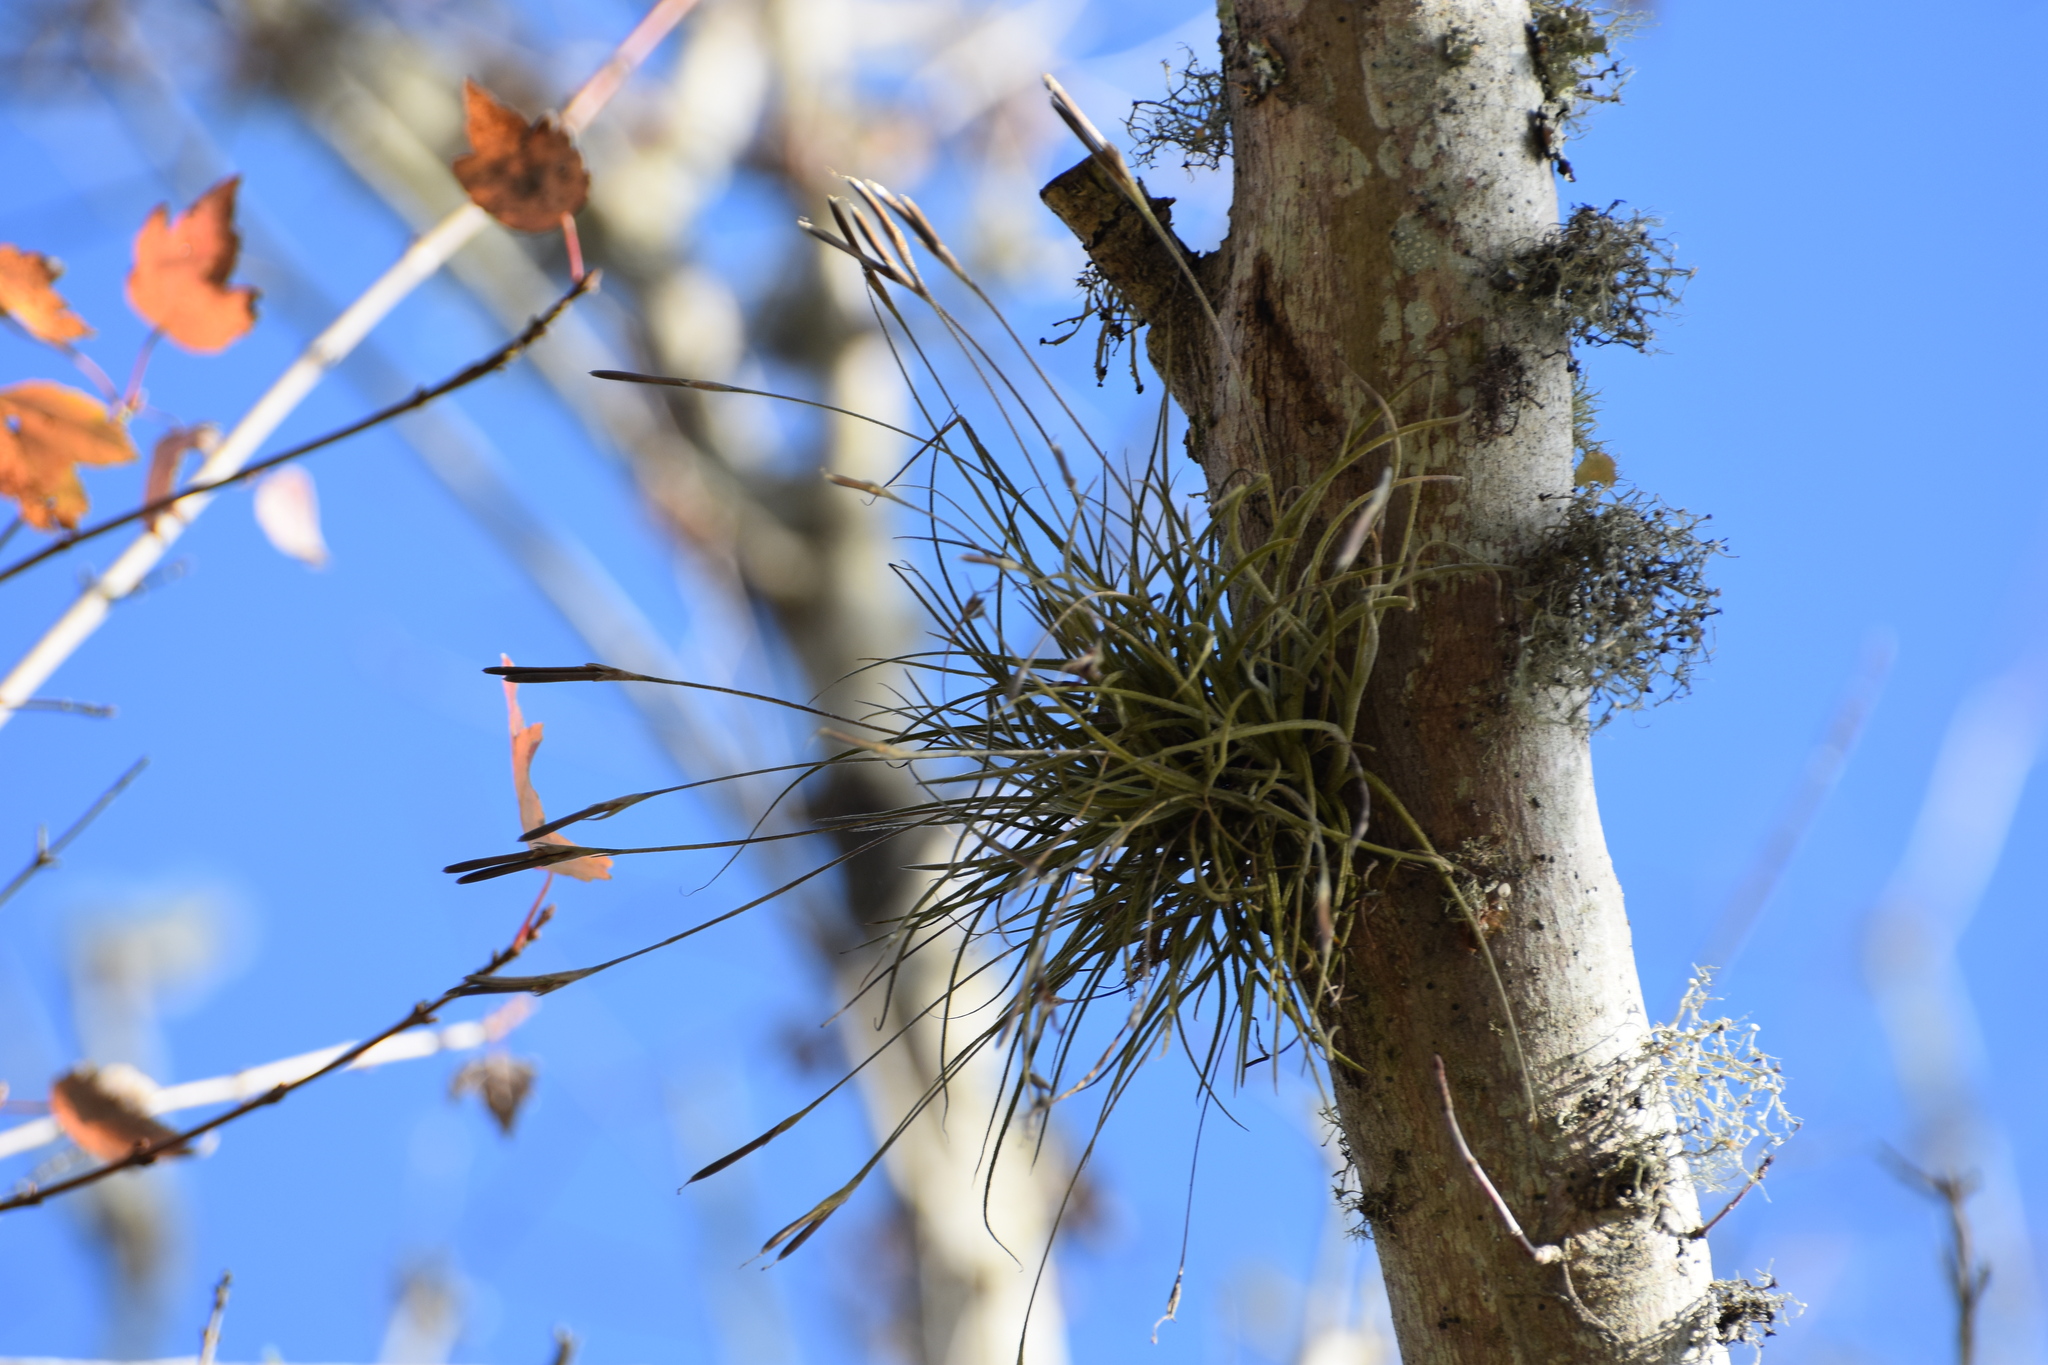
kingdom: Plantae
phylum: Tracheophyta
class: Liliopsida
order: Poales
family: Bromeliaceae
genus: Tillandsia
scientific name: Tillandsia recurvata
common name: Small ballmoss
